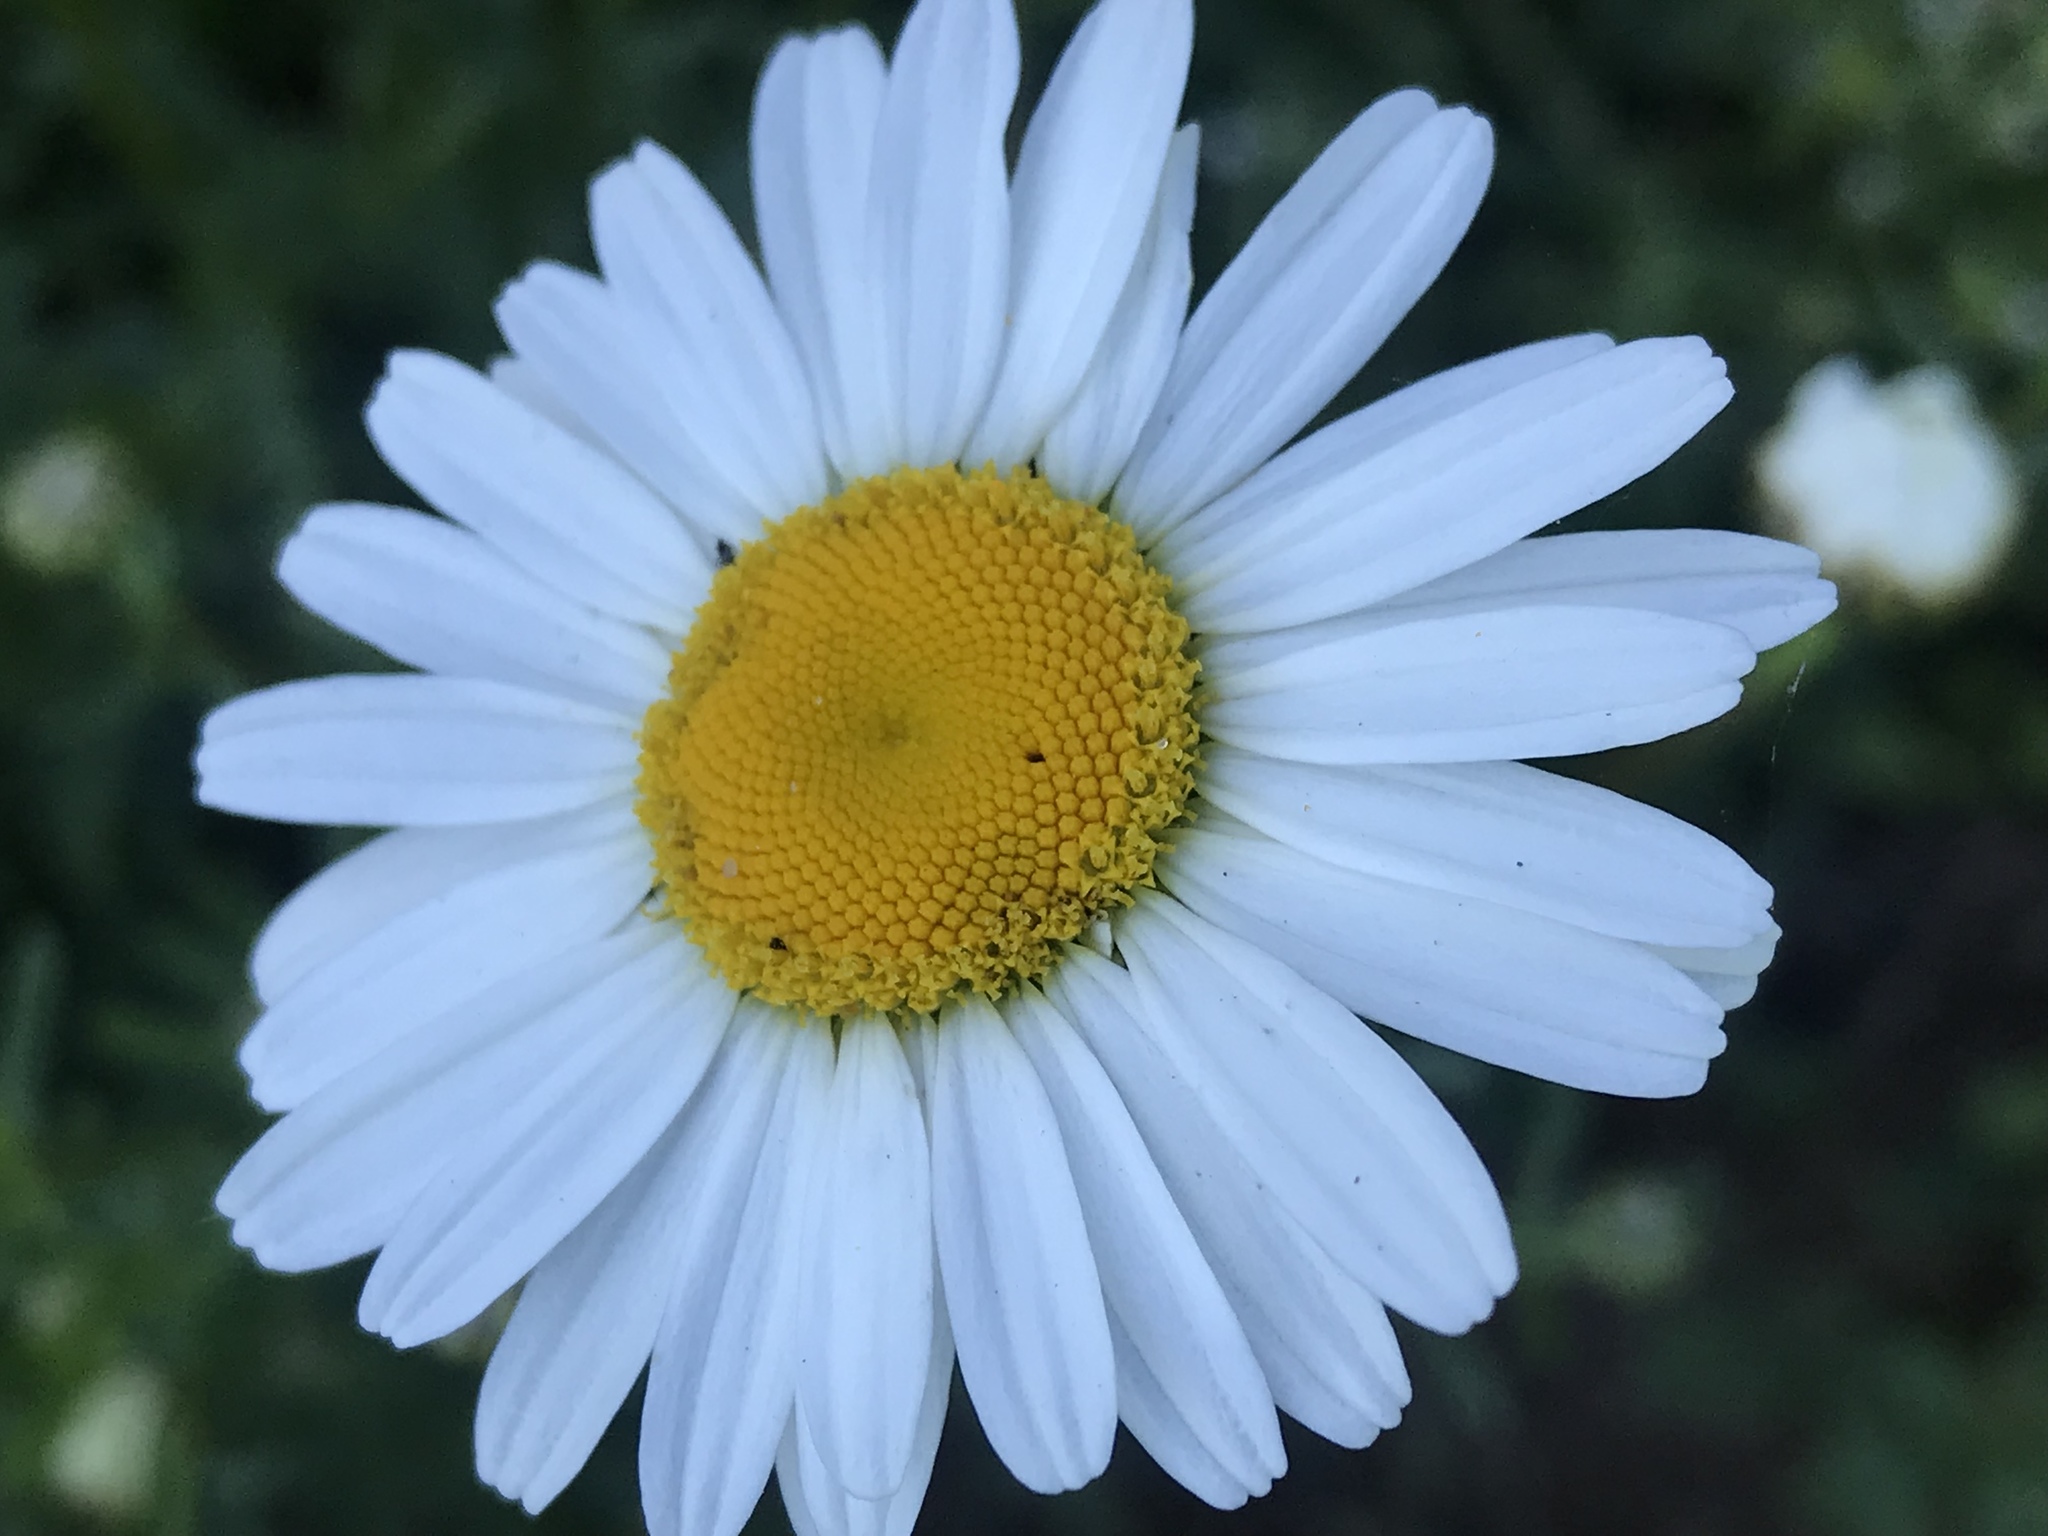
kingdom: Plantae
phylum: Tracheophyta
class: Magnoliopsida
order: Asterales
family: Asteraceae
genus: Leucanthemum
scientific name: Leucanthemum vulgare
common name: Oxeye daisy
